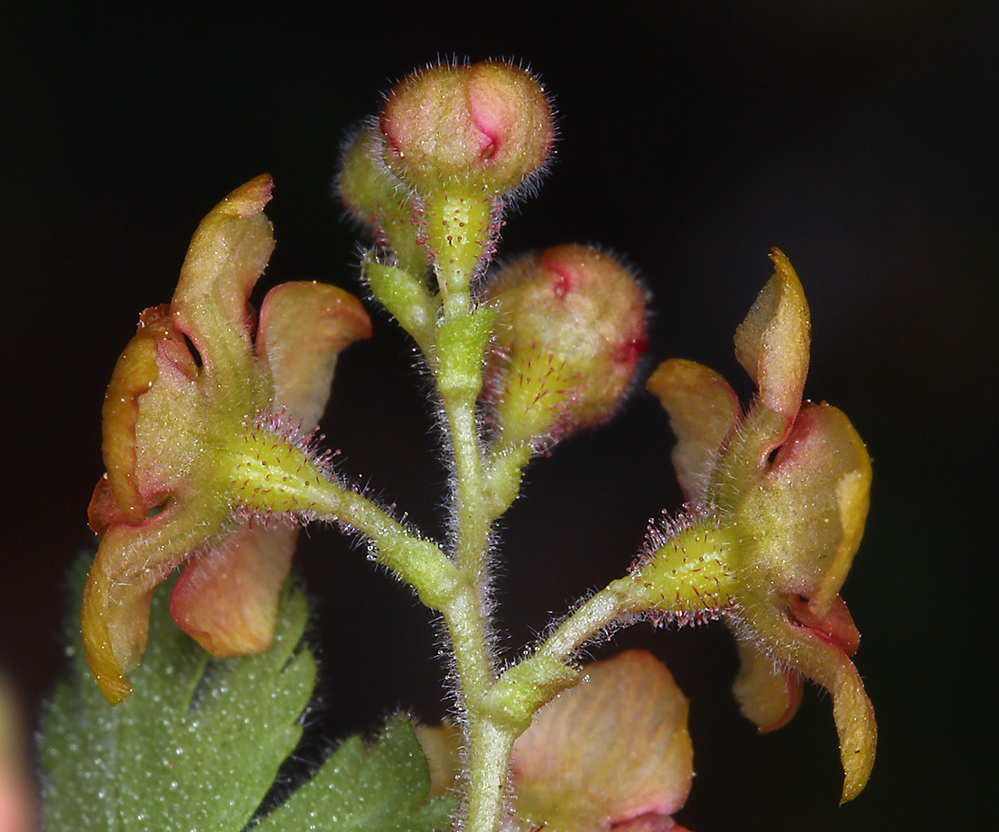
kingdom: Plantae
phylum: Tracheophyta
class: Magnoliopsida
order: Saxifragales
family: Grossulariaceae
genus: Ribes
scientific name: Ribes montigenum
